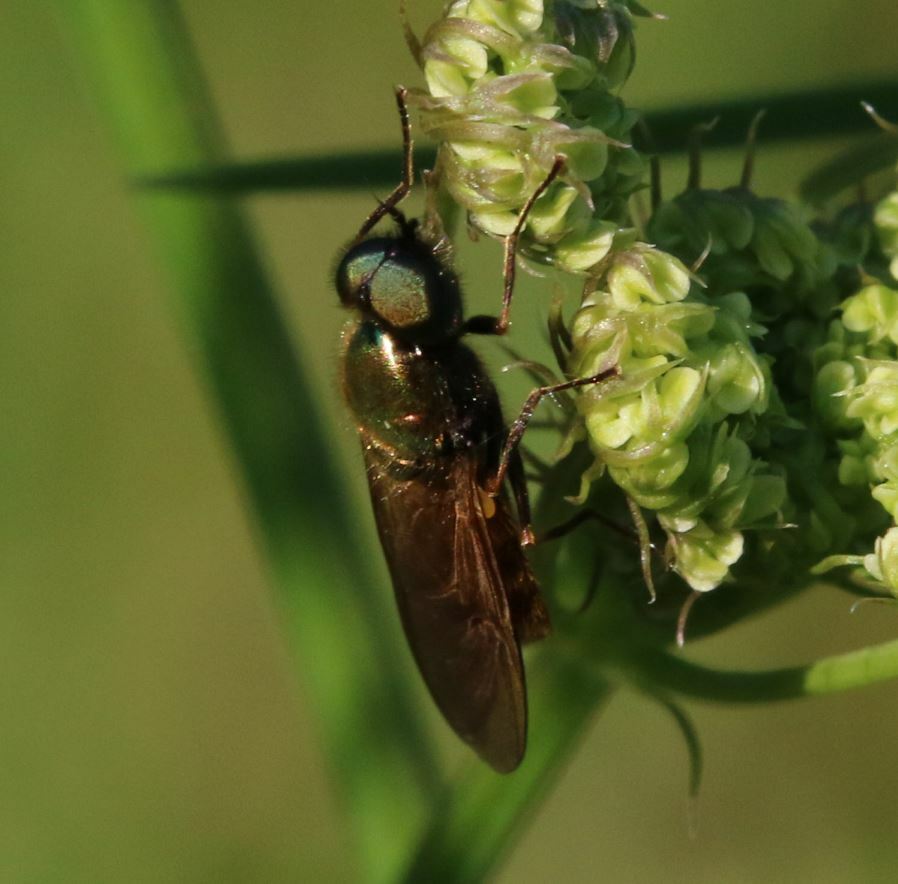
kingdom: Animalia
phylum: Arthropoda
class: Insecta
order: Diptera
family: Stratiomyidae
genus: Chloromyia
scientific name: Chloromyia formosa
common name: Soldier fly
